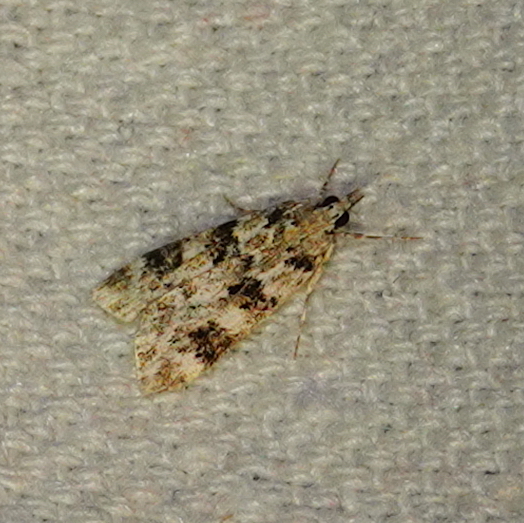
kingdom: Animalia
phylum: Arthropoda
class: Insecta
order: Lepidoptera
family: Crambidae
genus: Eudonia
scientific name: Eudonia delunella
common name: Pied grey
